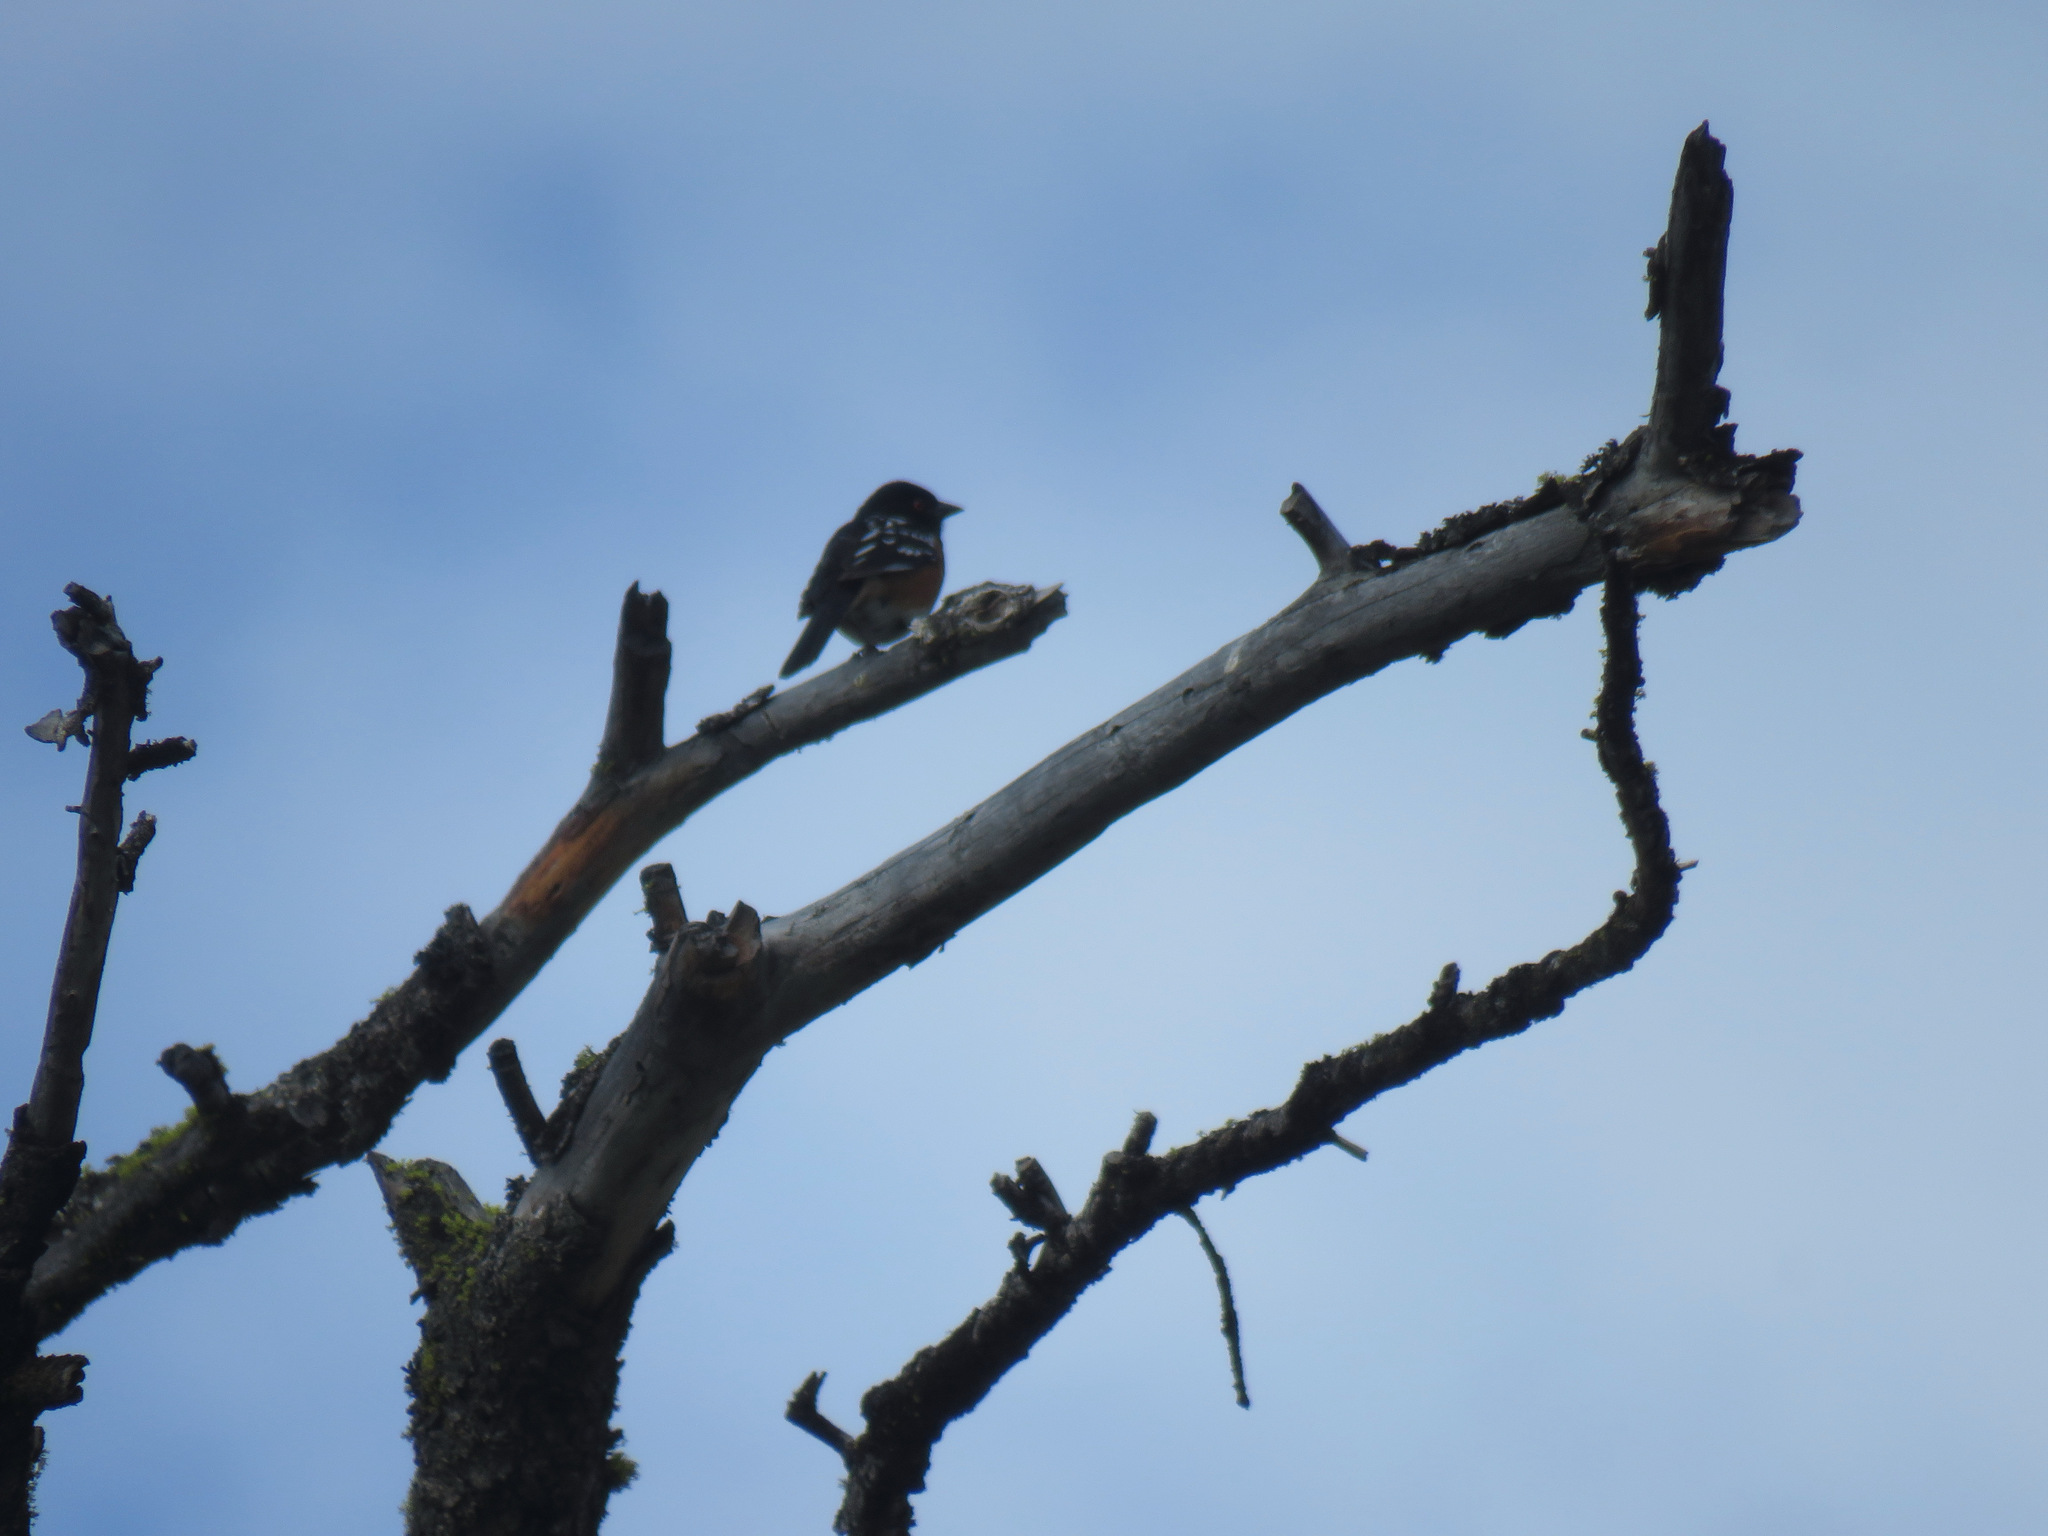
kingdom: Animalia
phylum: Chordata
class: Aves
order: Passeriformes
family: Passerellidae
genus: Pipilo
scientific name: Pipilo maculatus
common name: Spotted towhee
